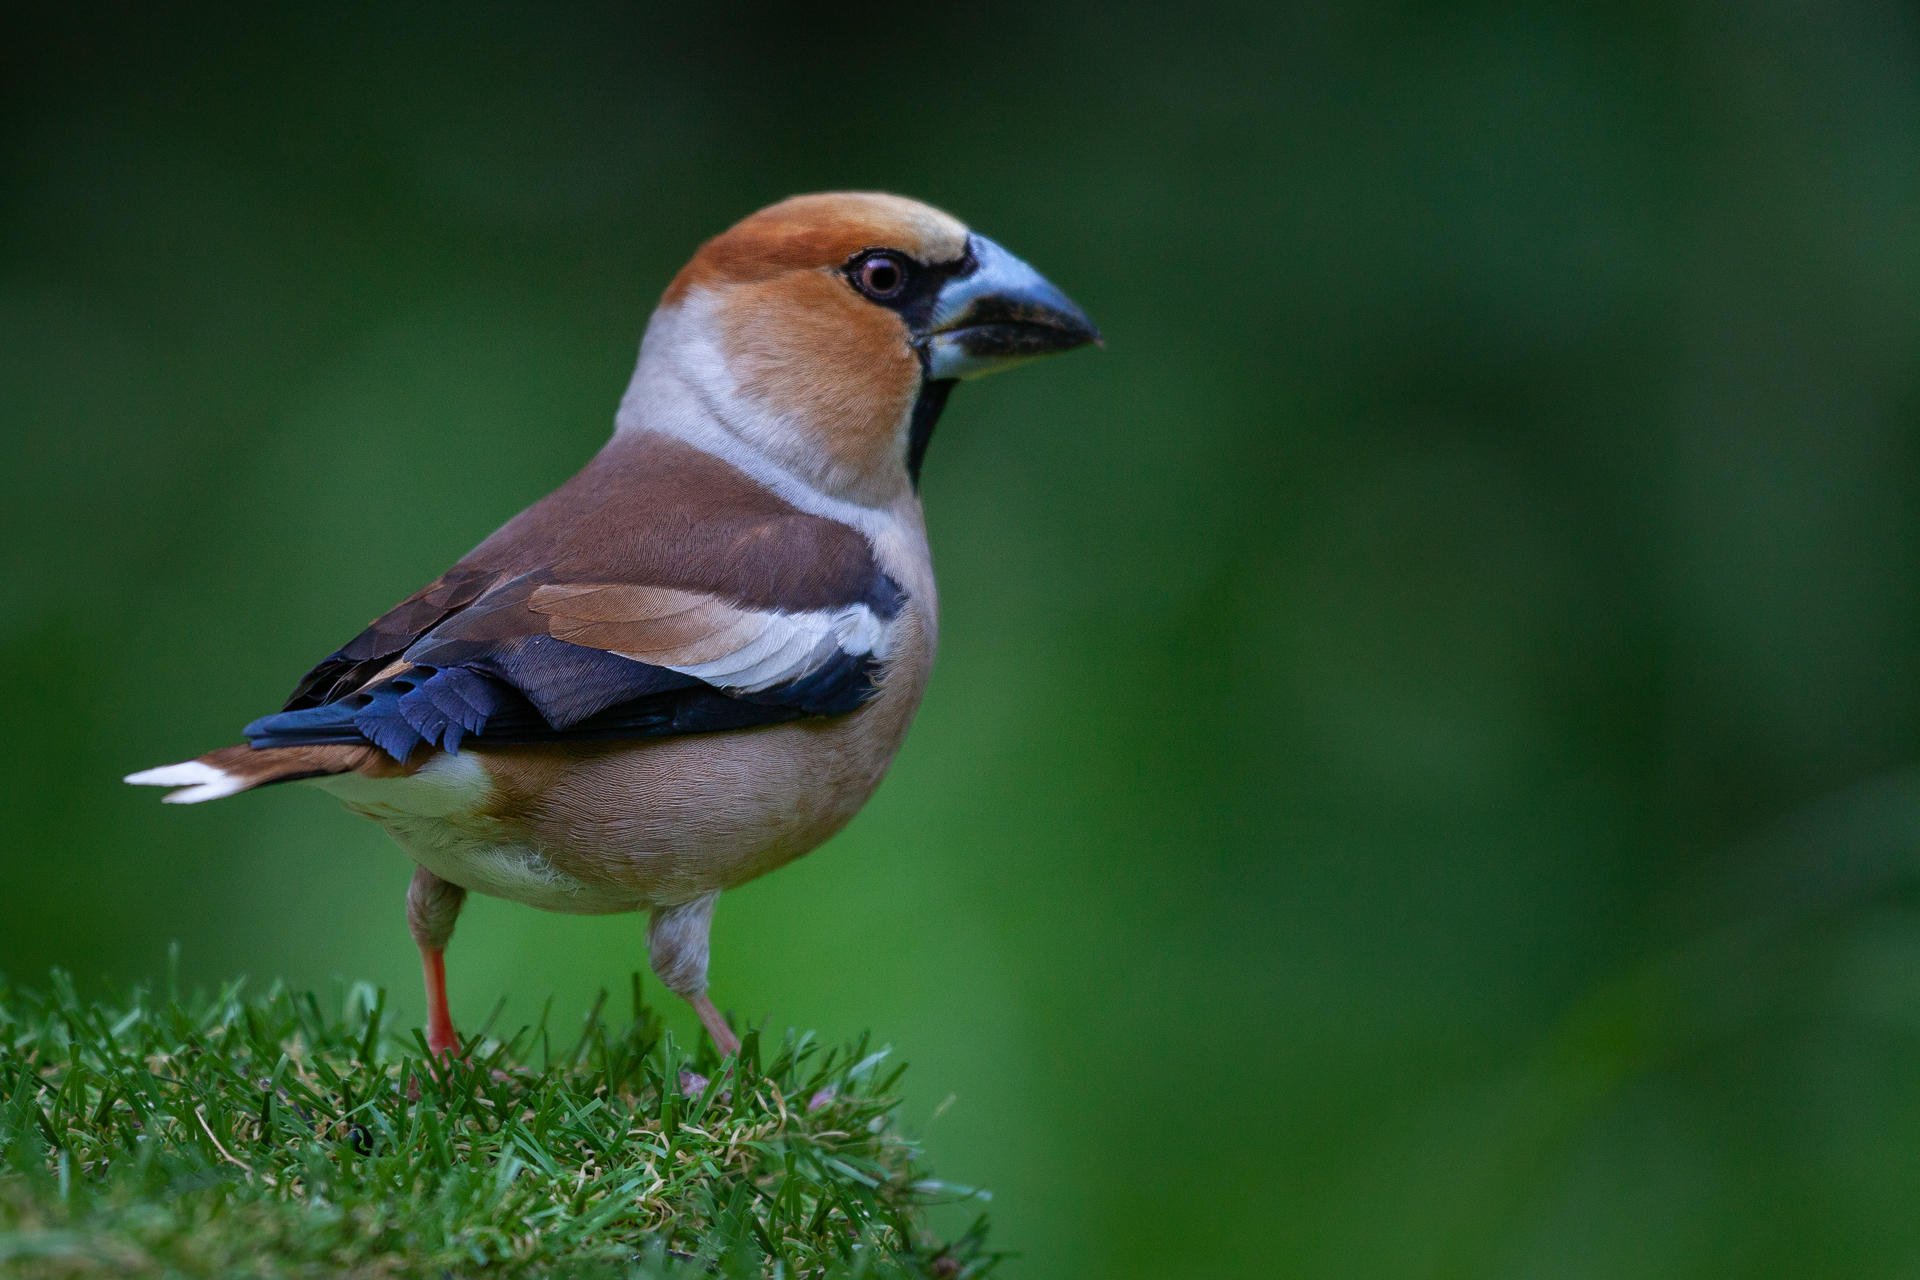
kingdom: Animalia
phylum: Chordata
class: Aves
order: Passeriformes
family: Fringillidae
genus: Coccothraustes
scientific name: Coccothraustes coccothraustes
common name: Hawfinch
